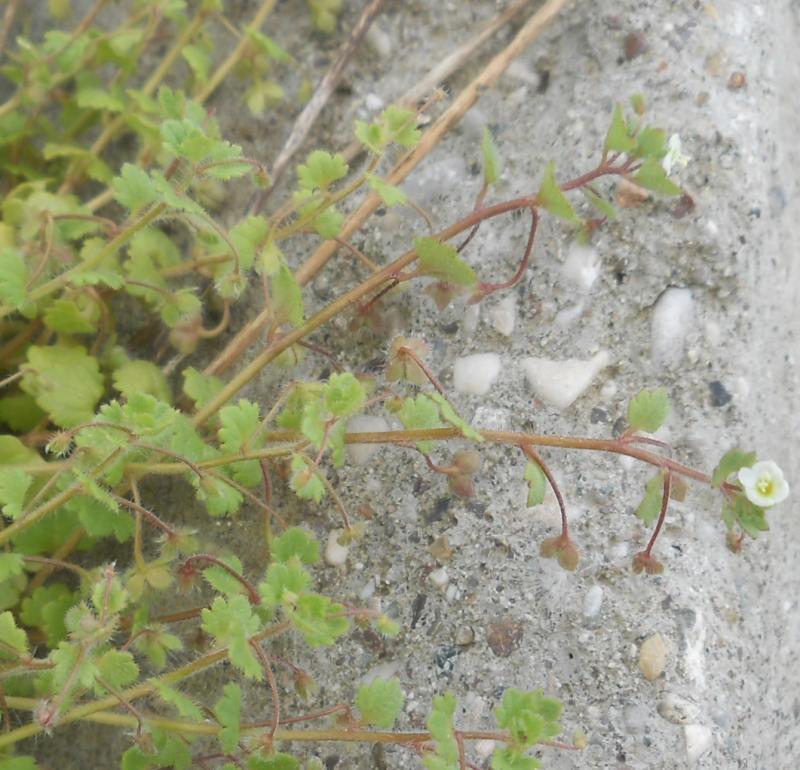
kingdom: Plantae
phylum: Tracheophyta
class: Magnoliopsida
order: Lamiales
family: Plantaginaceae
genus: Veronica
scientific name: Veronica cymbalaria
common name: Pale speedwell
